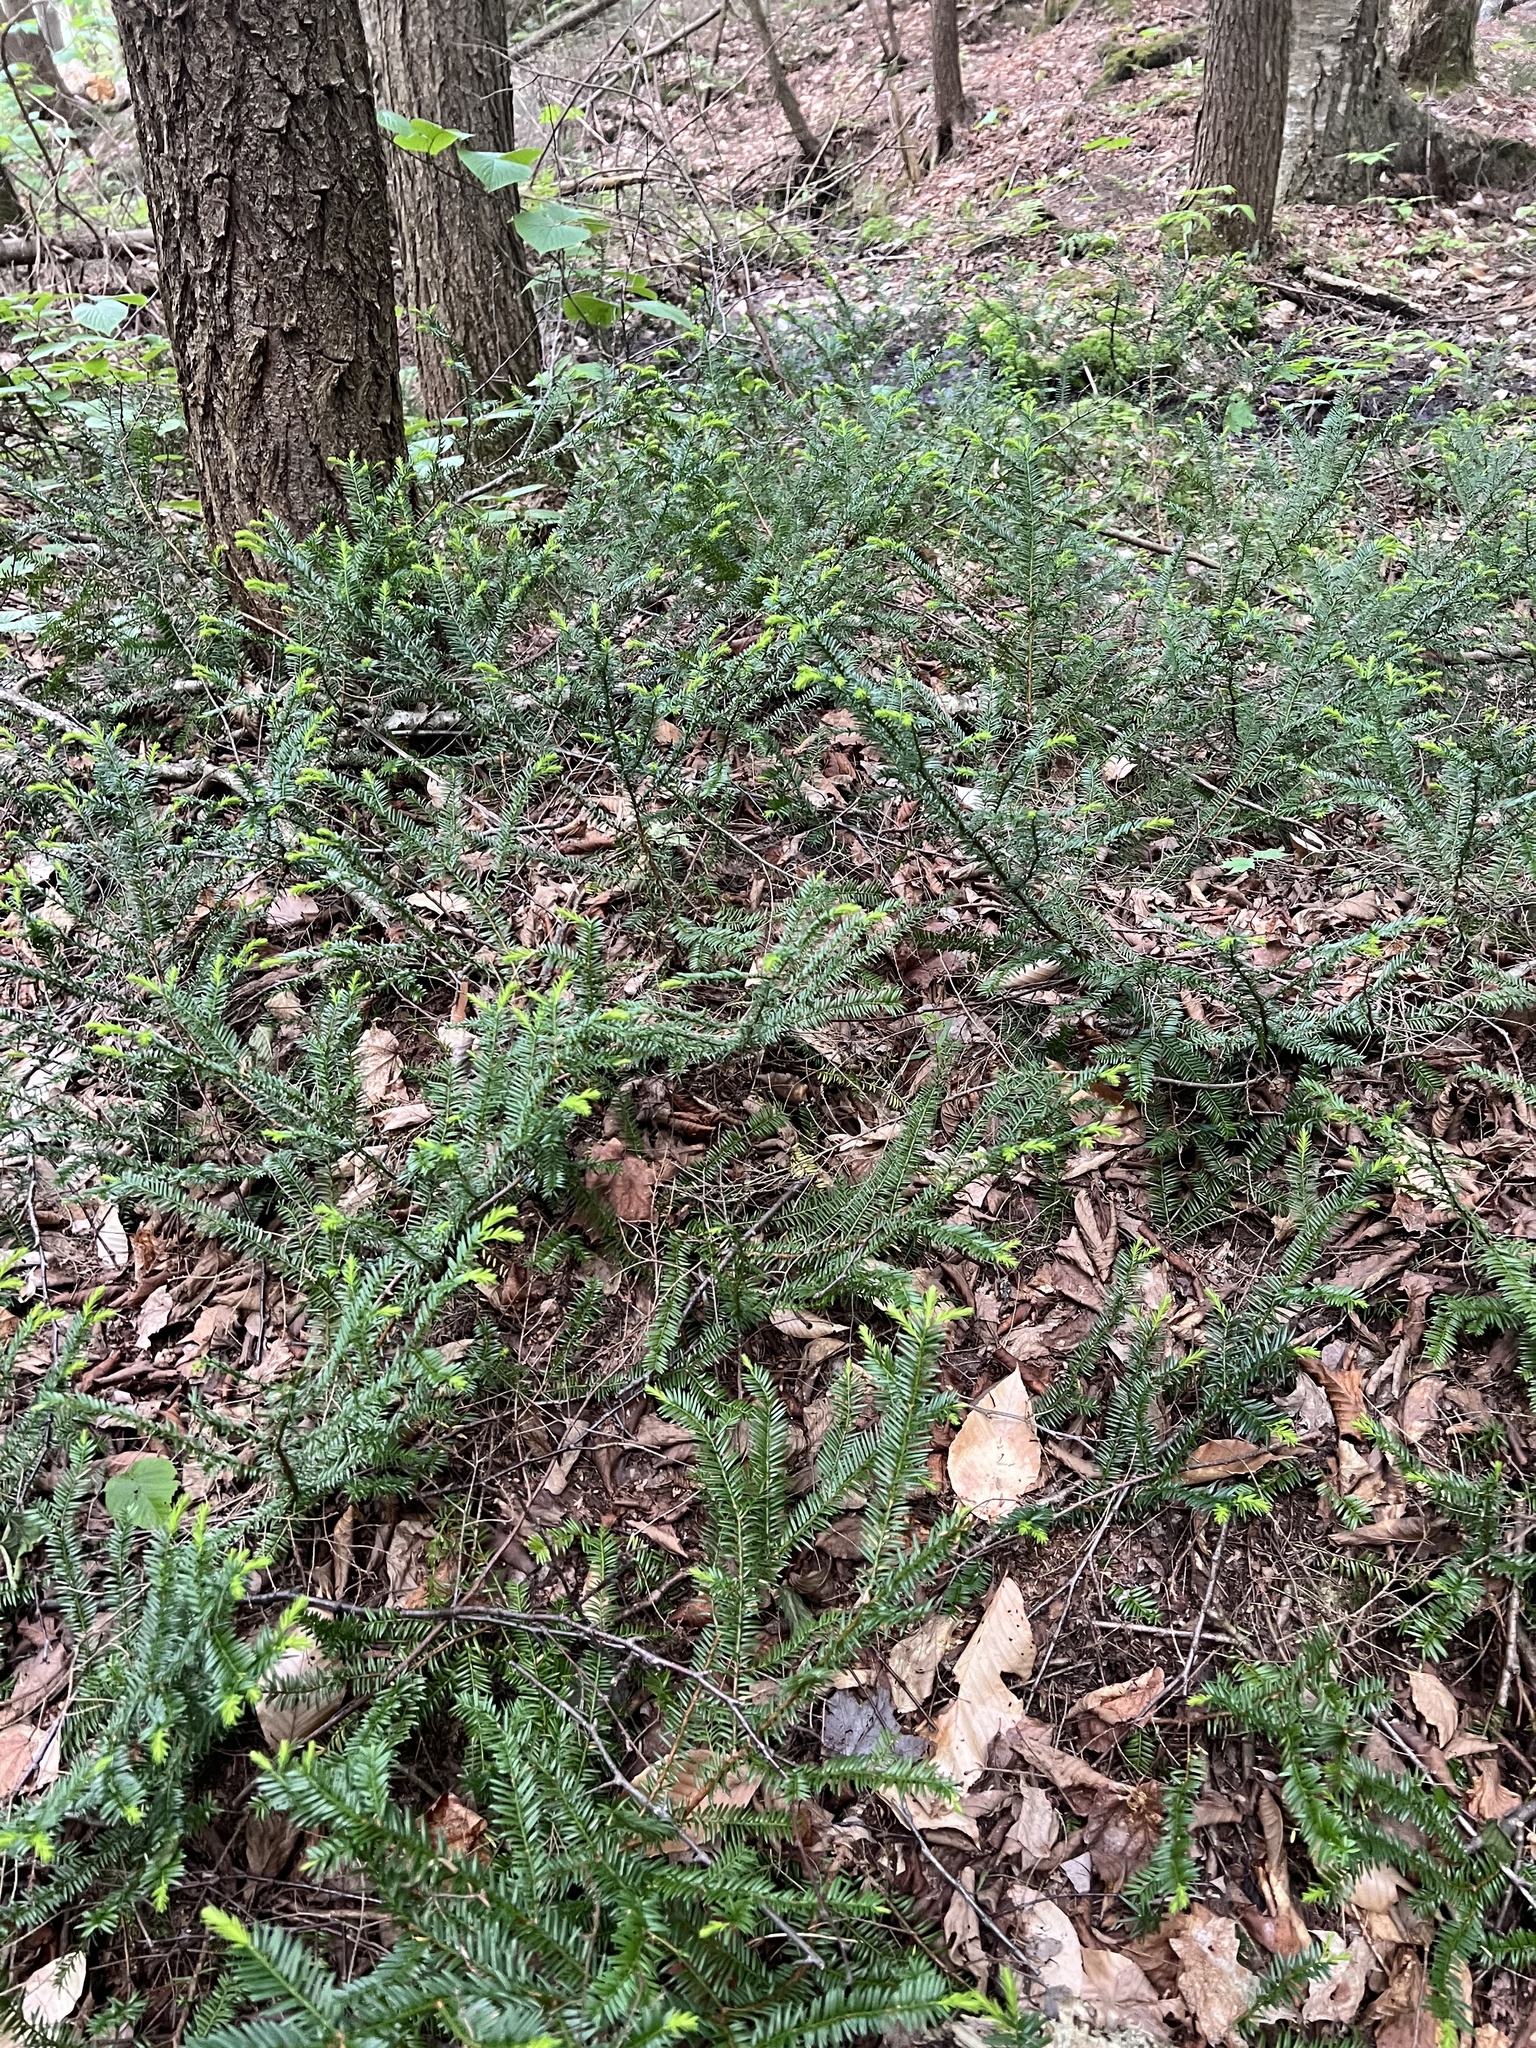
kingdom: Plantae
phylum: Tracheophyta
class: Pinopsida
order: Pinales
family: Taxaceae
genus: Taxus
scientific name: Taxus canadensis
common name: American yew
